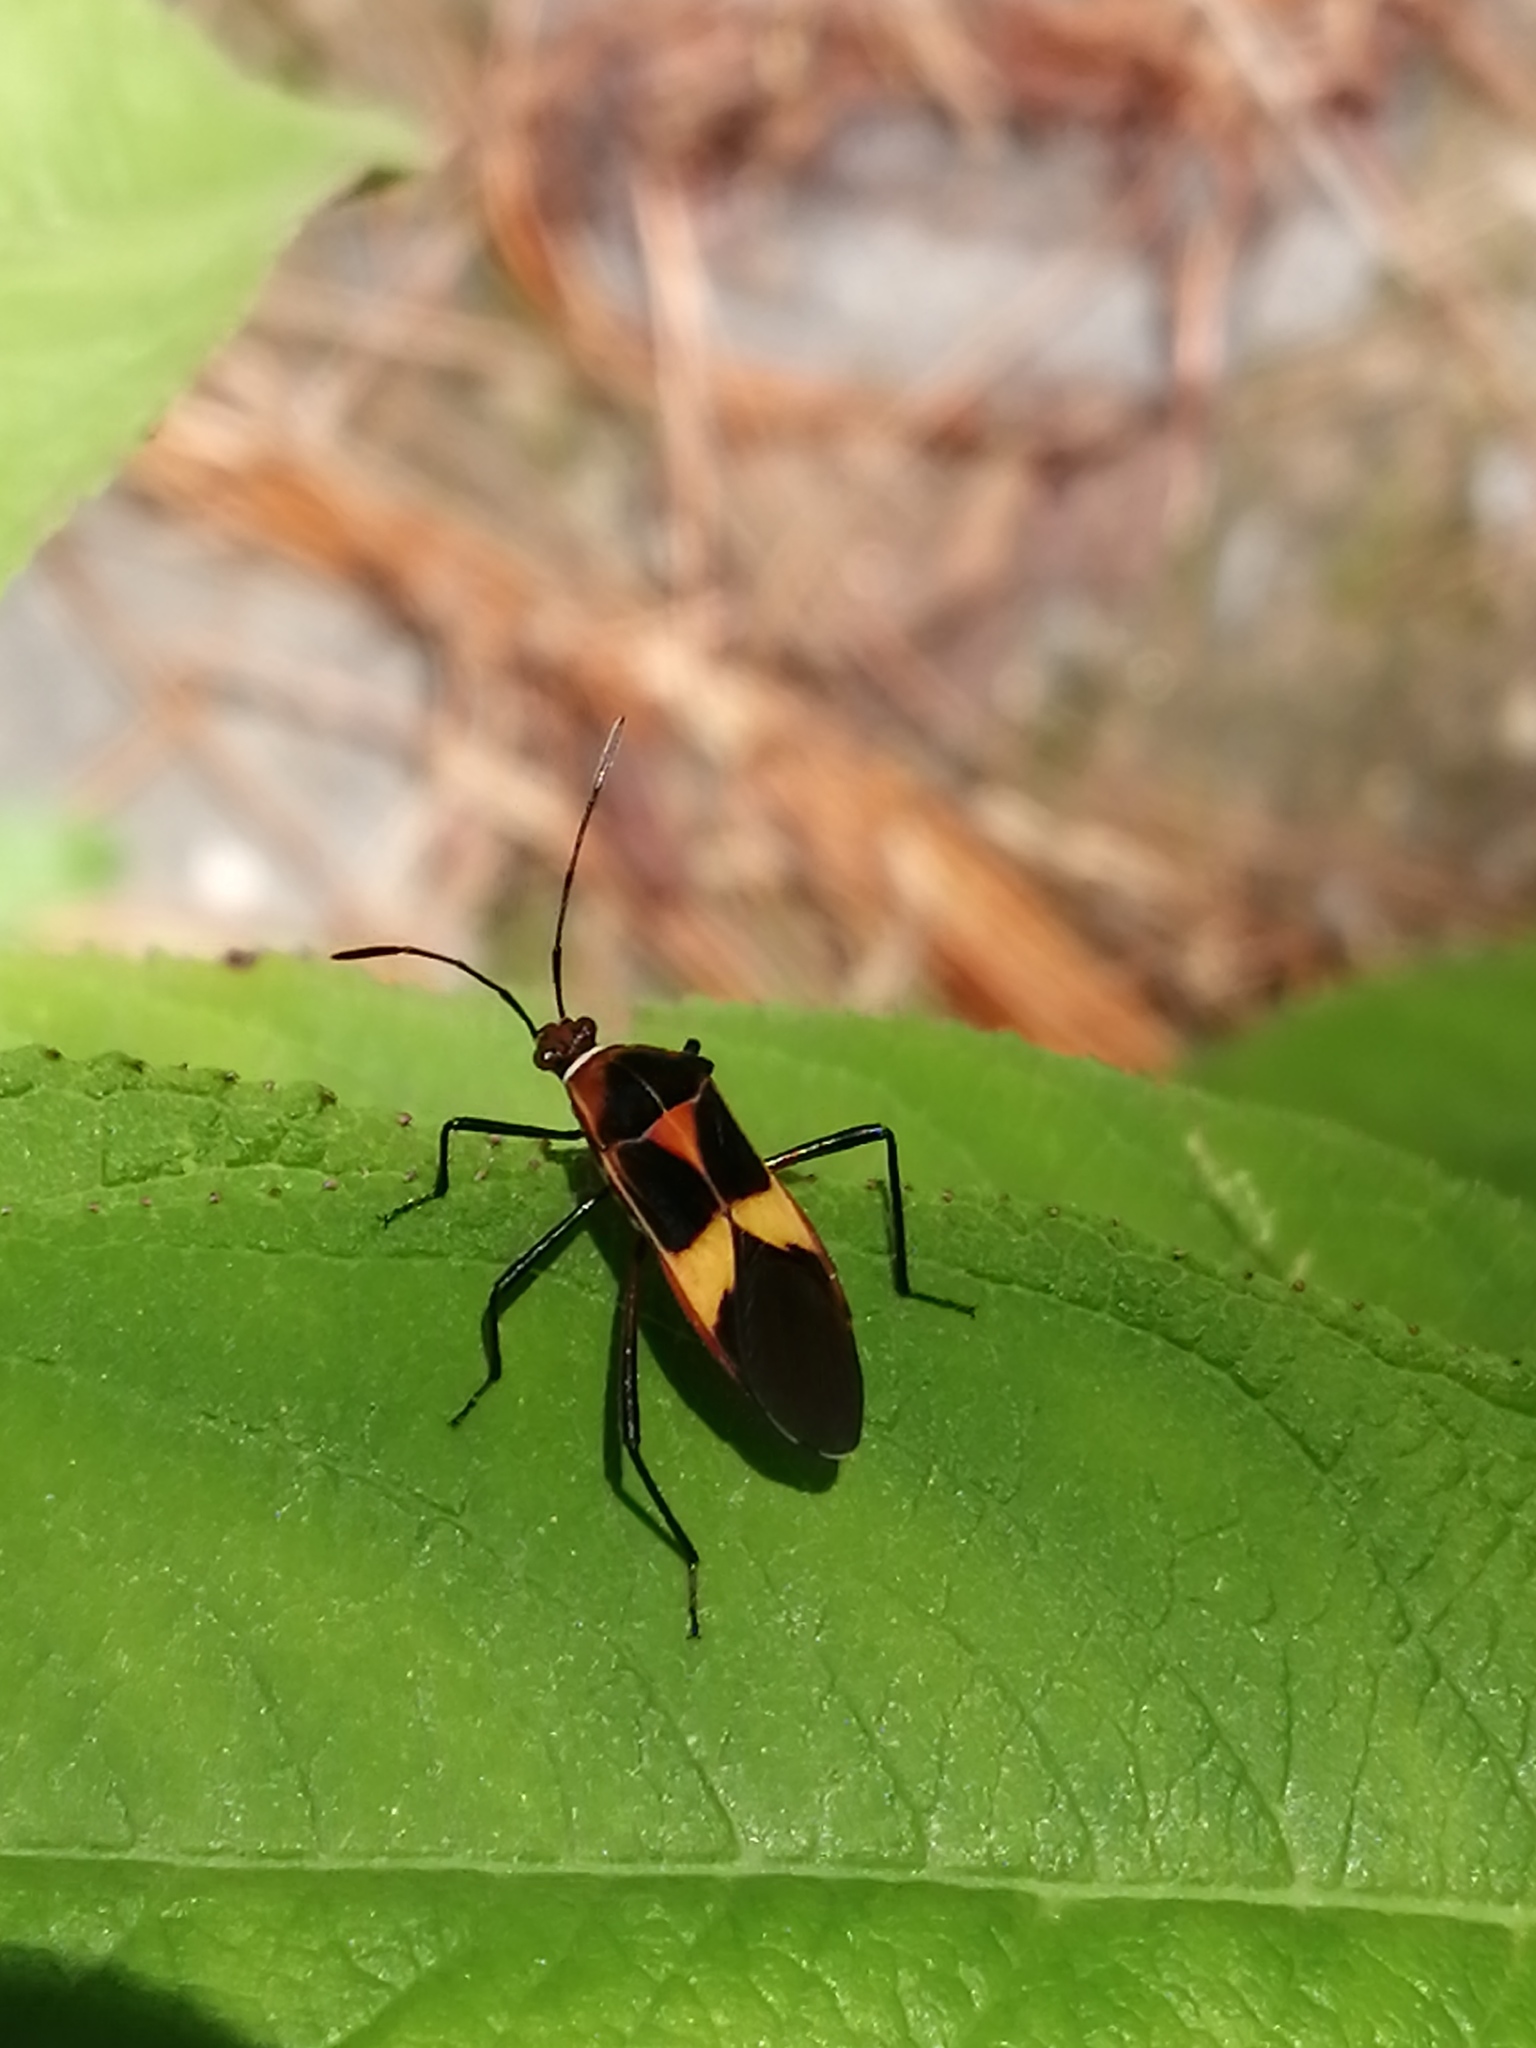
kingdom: Animalia
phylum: Arthropoda
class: Insecta
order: Hemiptera
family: Coreidae
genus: Hypselonotus
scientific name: Hypselonotus interruptus
